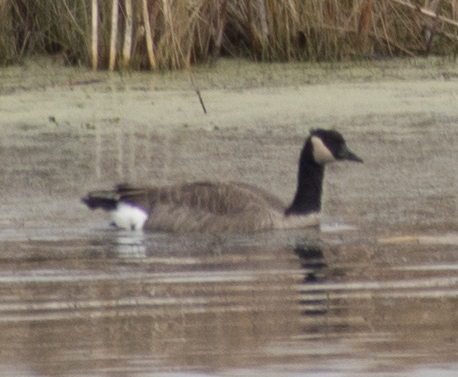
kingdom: Animalia
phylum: Chordata
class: Aves
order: Anseriformes
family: Anatidae
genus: Branta
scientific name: Branta canadensis
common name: Canada goose
